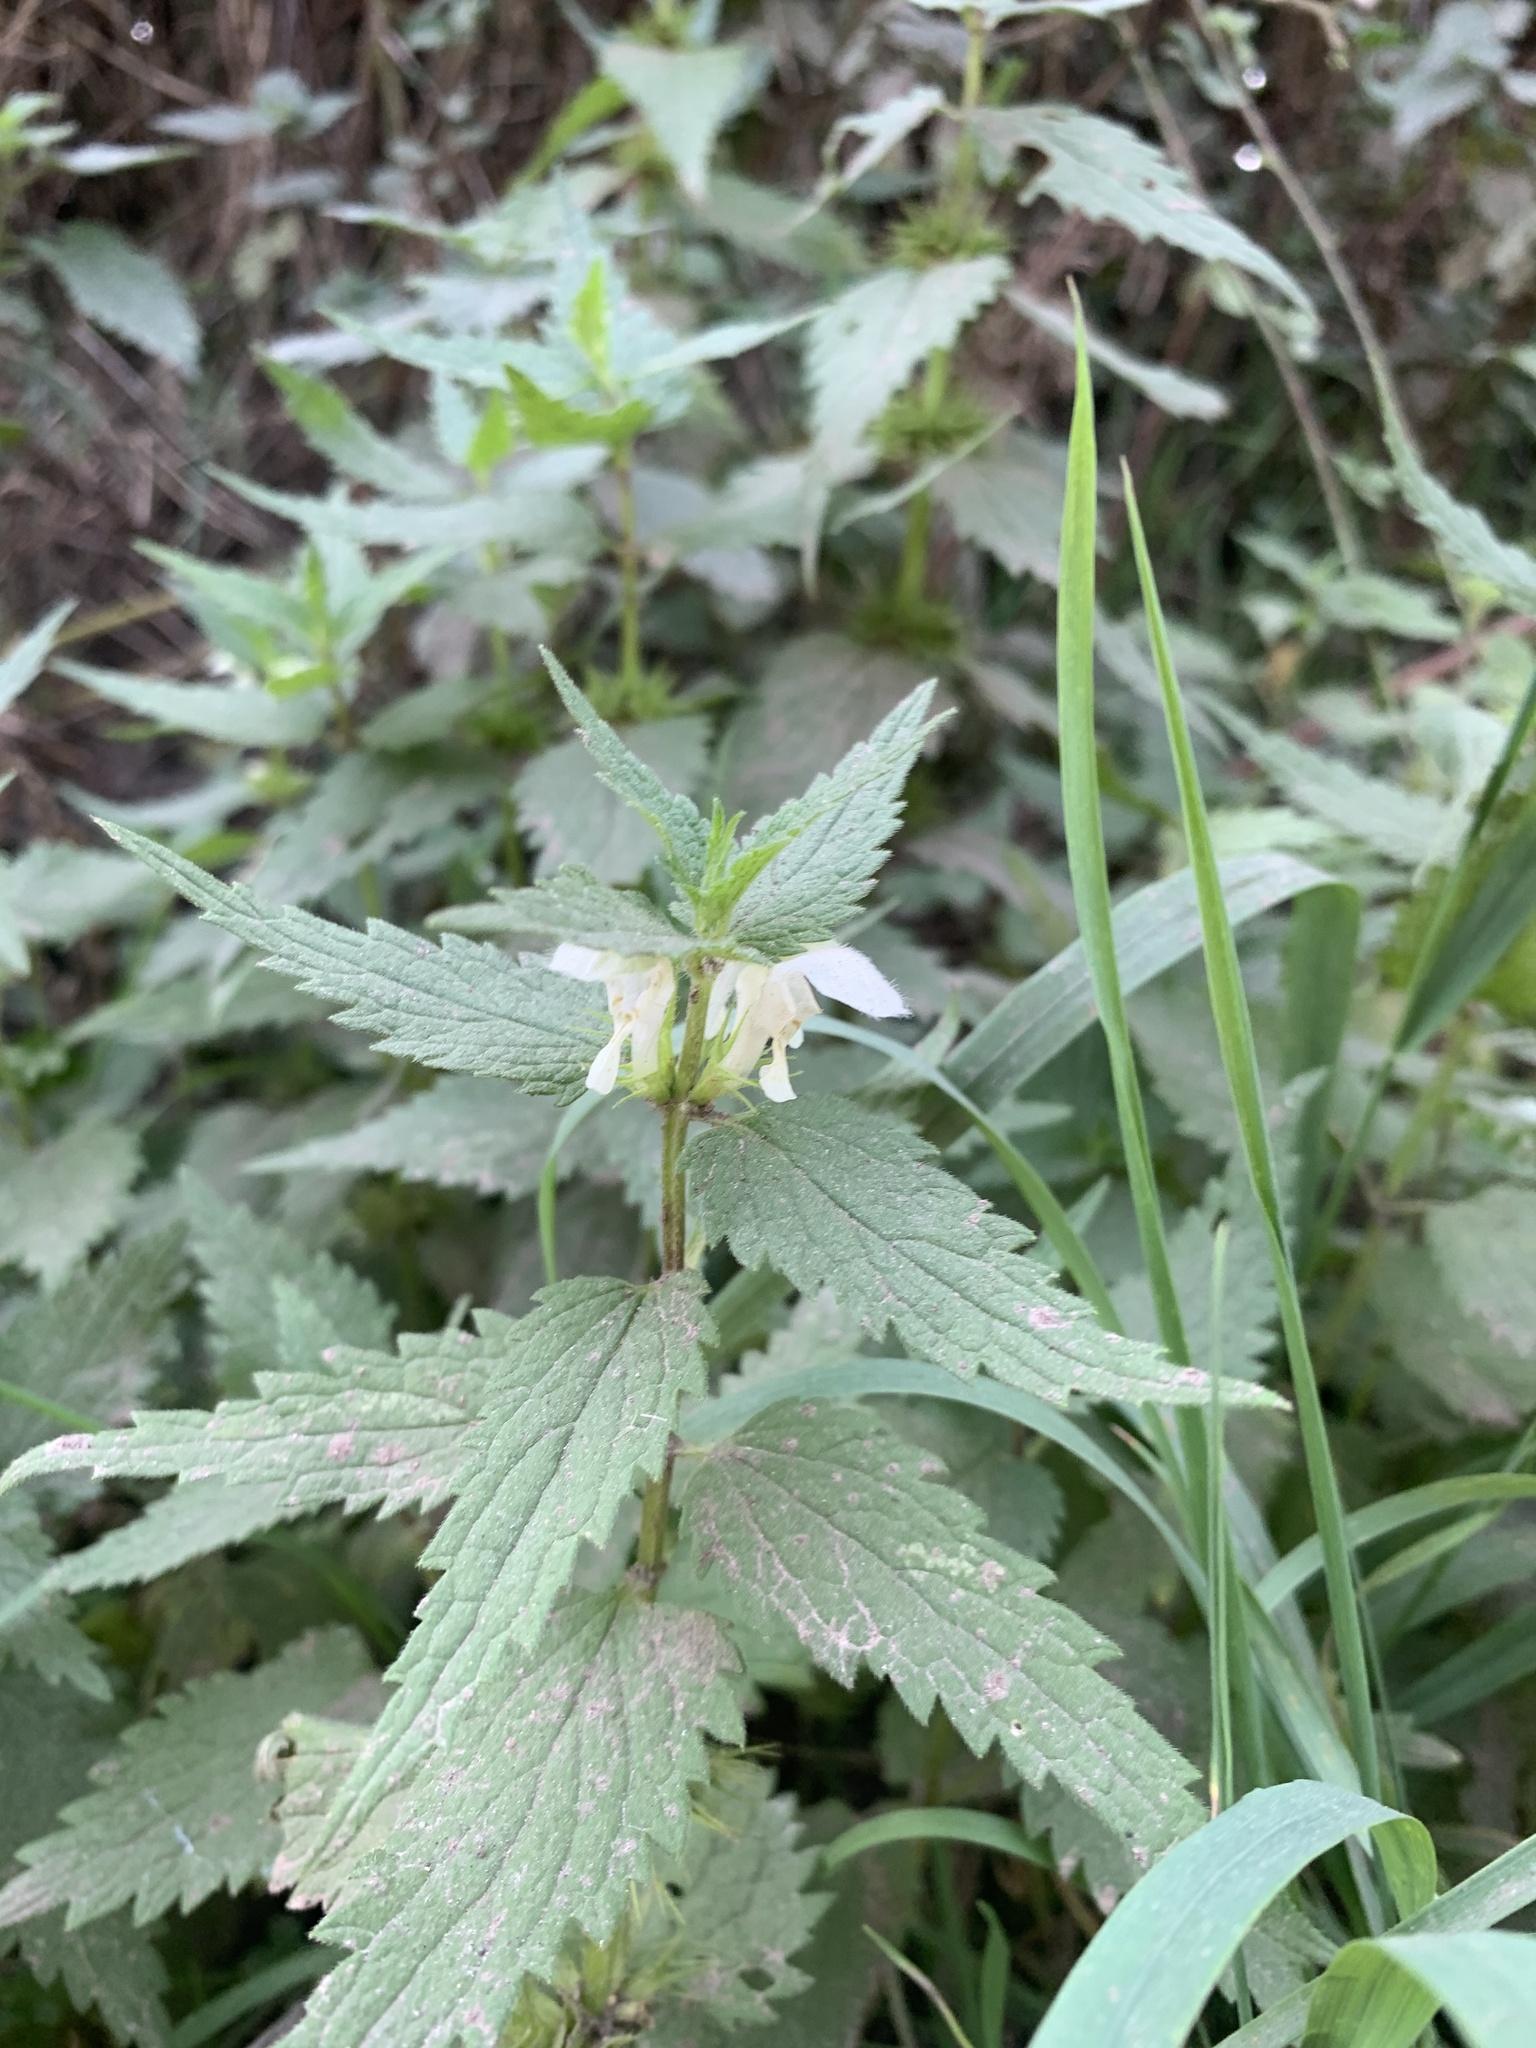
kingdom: Plantae
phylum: Tracheophyta
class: Magnoliopsida
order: Lamiales
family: Lamiaceae
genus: Lamium
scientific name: Lamium album
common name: White dead-nettle
